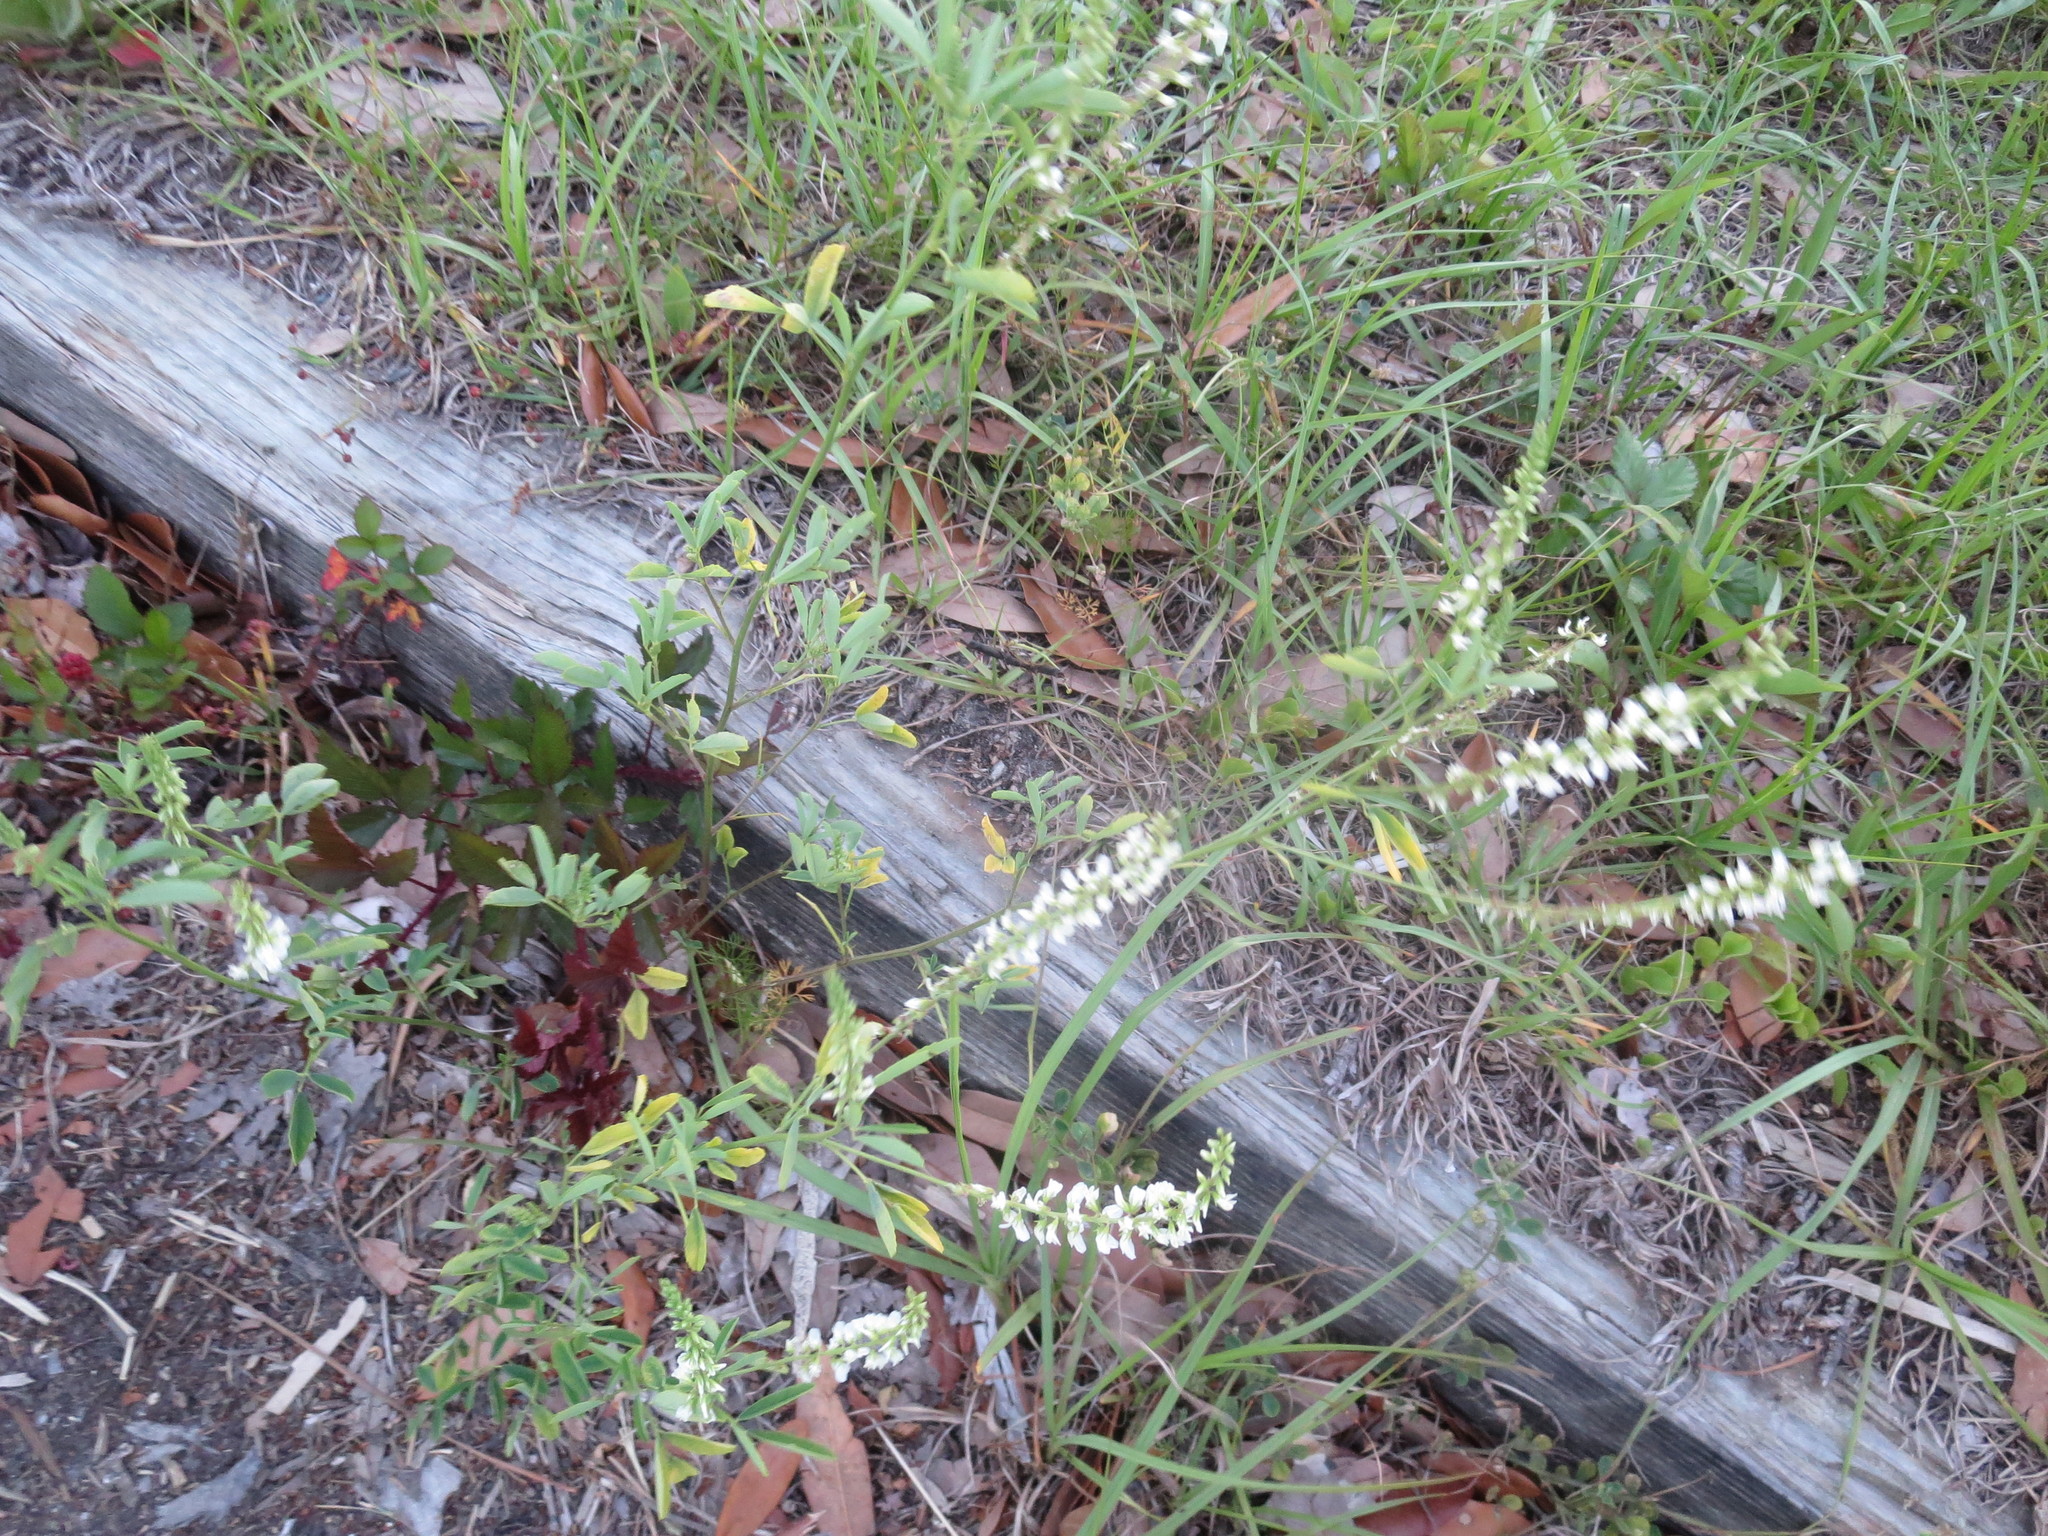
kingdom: Plantae
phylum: Tracheophyta
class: Magnoliopsida
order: Fabales
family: Fabaceae
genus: Melilotus
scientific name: Melilotus albus
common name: White melilot
